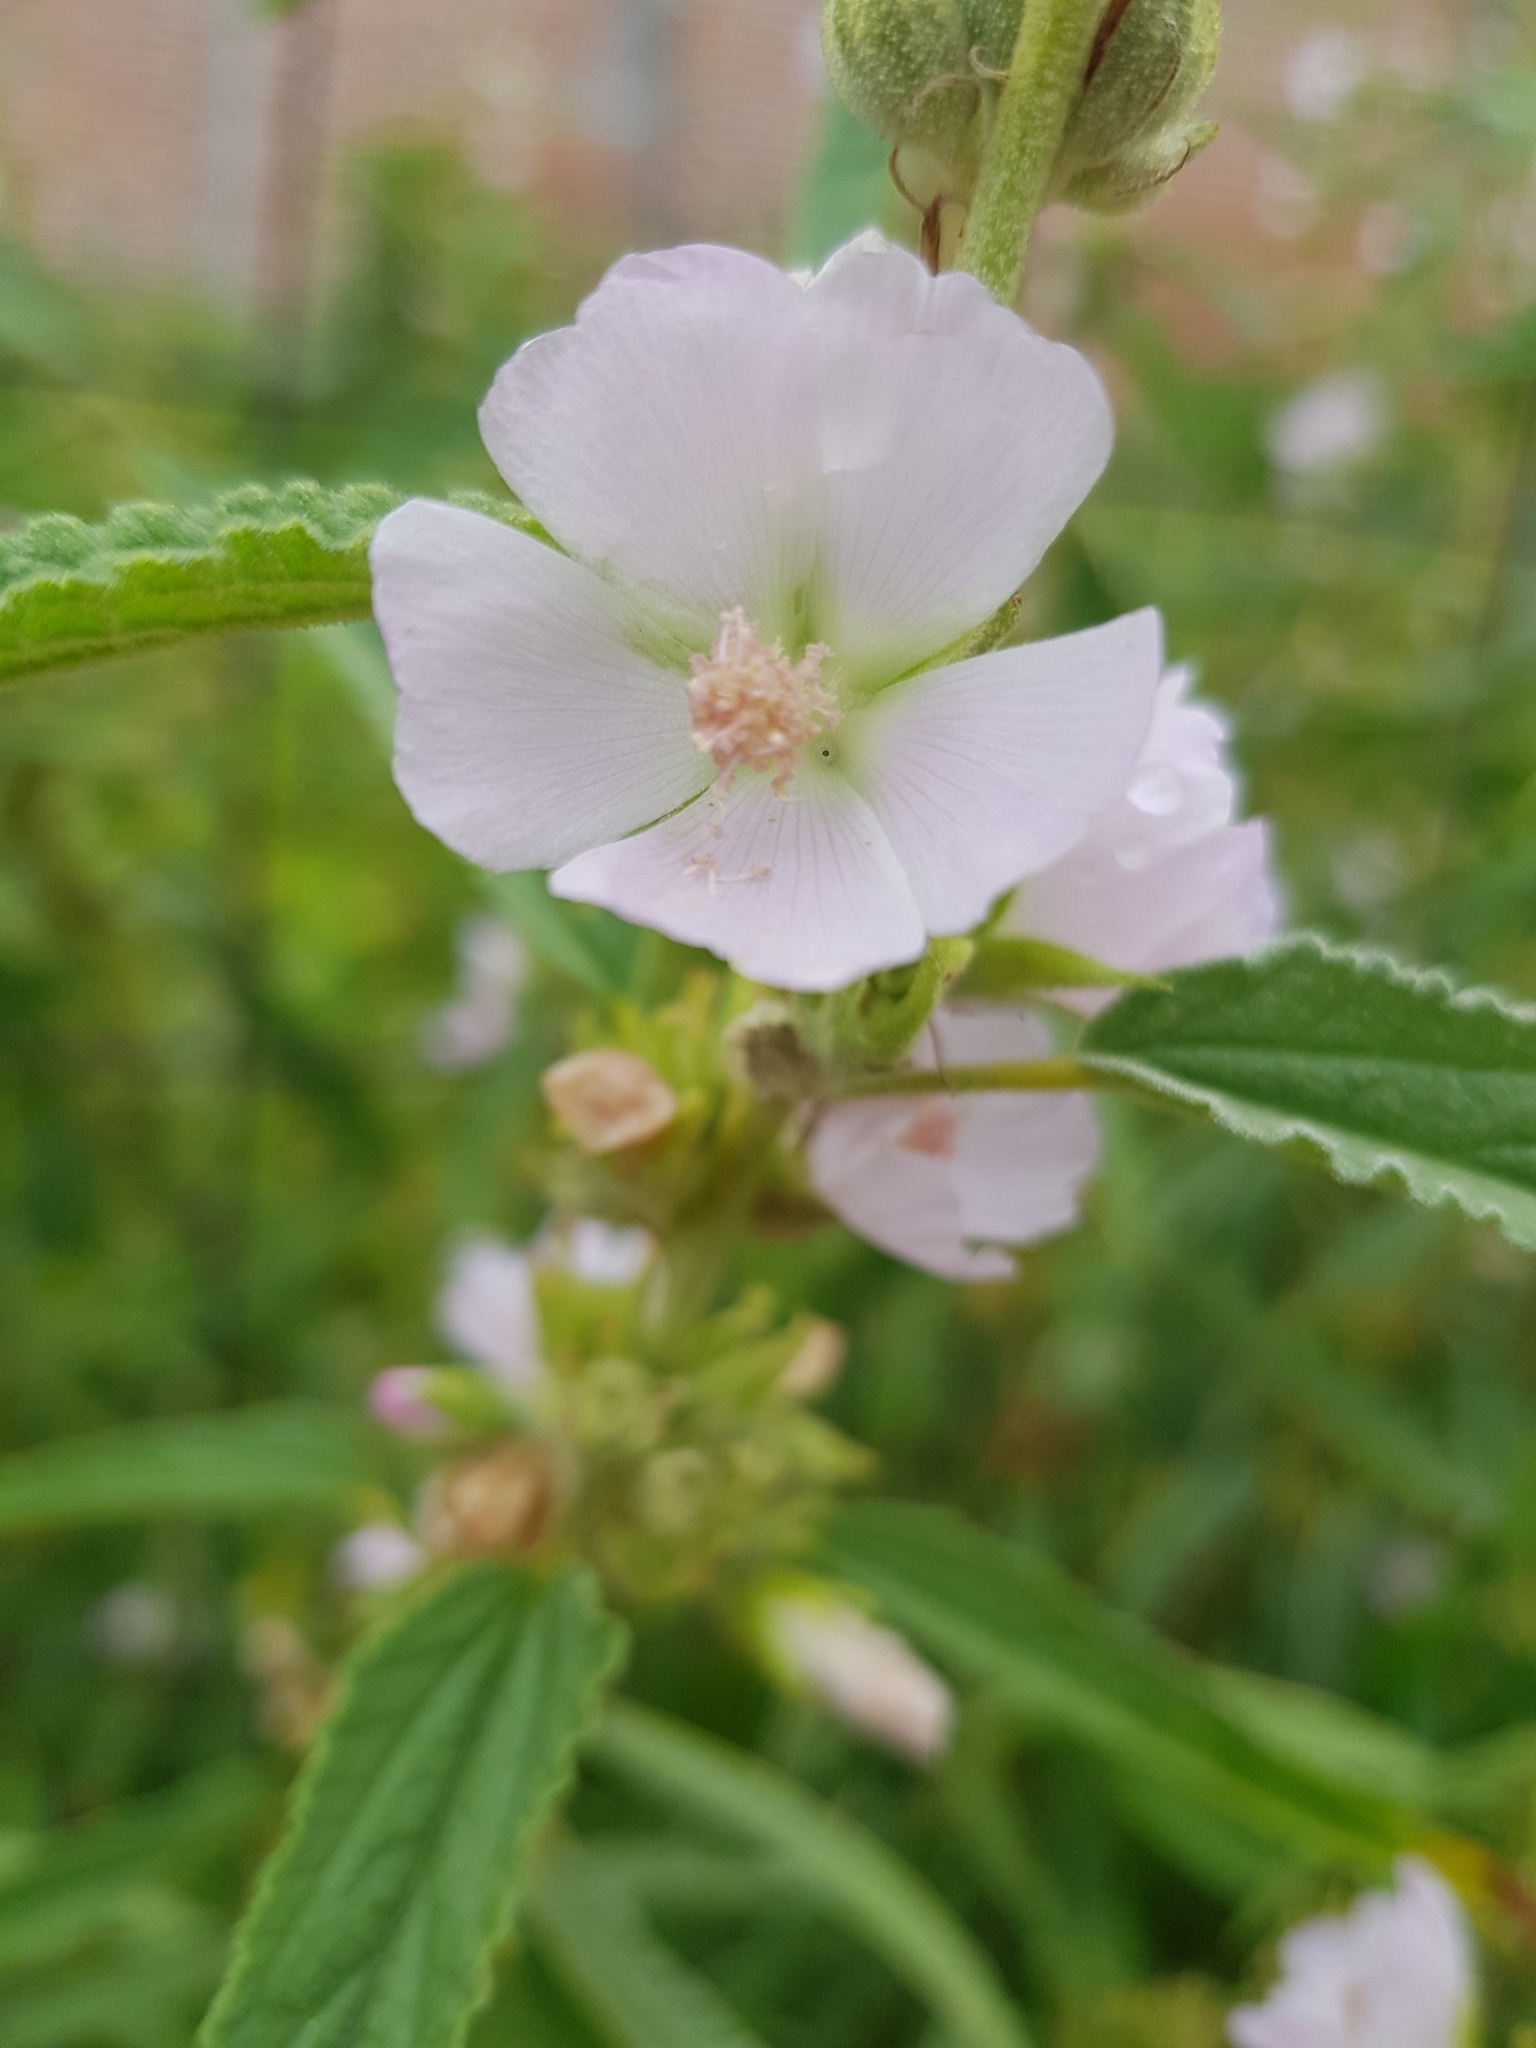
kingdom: Plantae
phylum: Tracheophyta
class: Magnoliopsida
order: Malvales
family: Malvaceae
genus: Sphaeralcea
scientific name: Sphaeralcea angustifolia
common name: Copper globe-mallow
